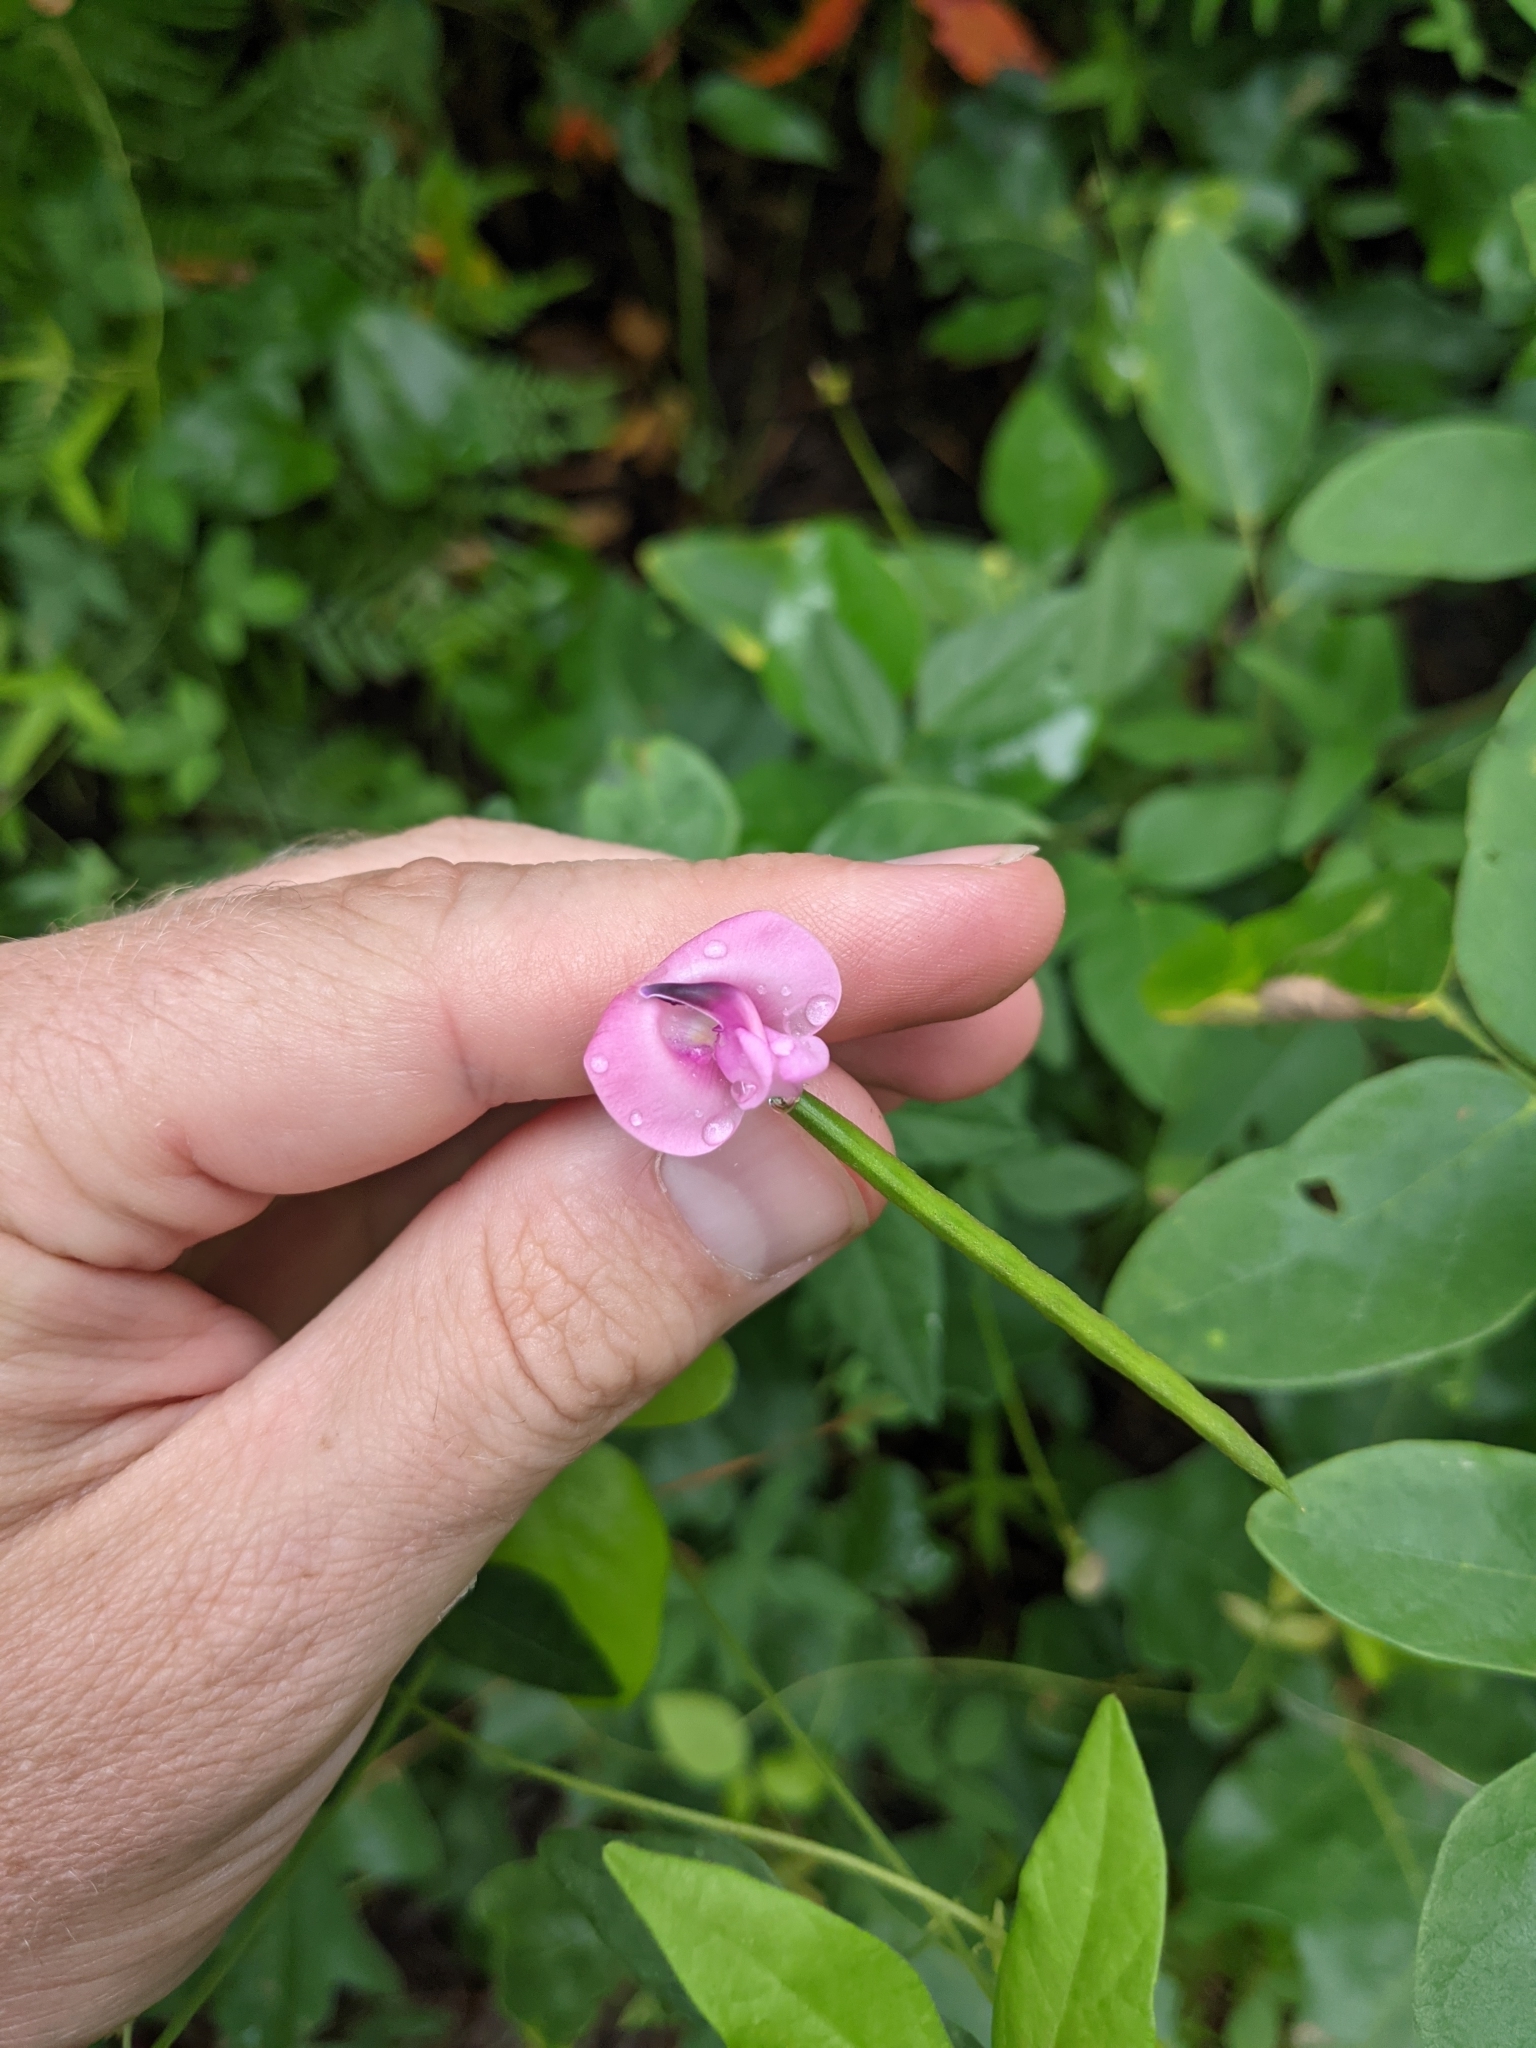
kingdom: Plantae
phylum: Tracheophyta
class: Magnoliopsida
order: Fabales
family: Fabaceae
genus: Strophostyles
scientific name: Strophostyles umbellata
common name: Perennial wild bean
